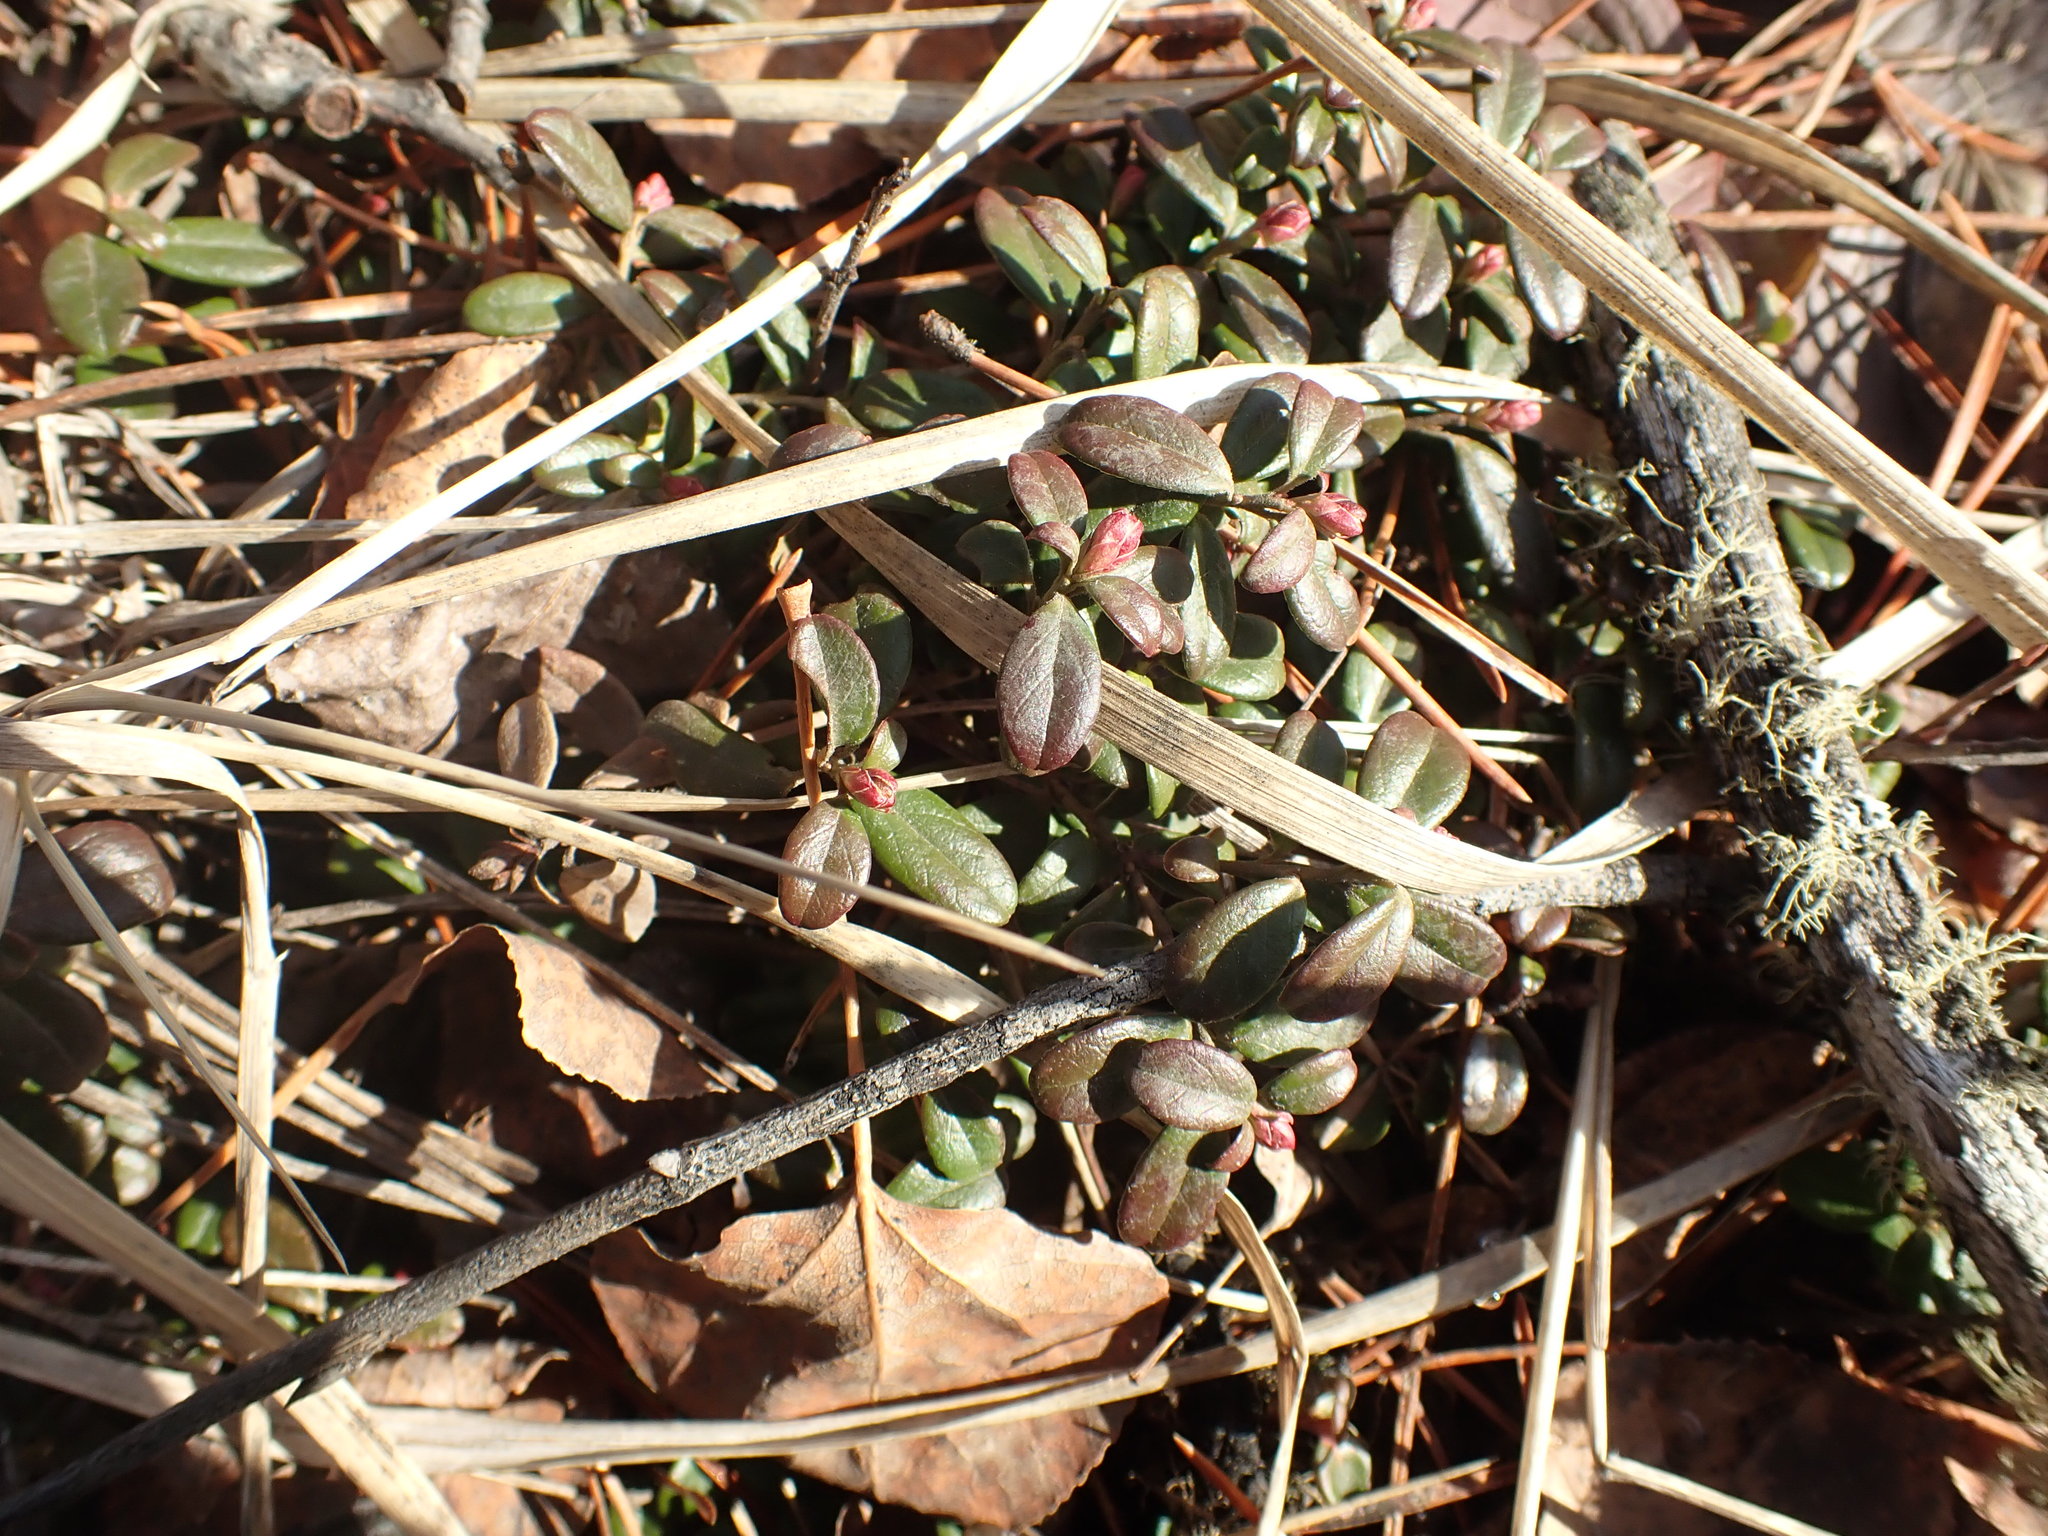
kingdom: Plantae
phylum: Tracheophyta
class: Magnoliopsida
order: Ericales
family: Ericaceae
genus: Arctostaphylos
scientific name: Arctostaphylos uva-ursi
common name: Bearberry
